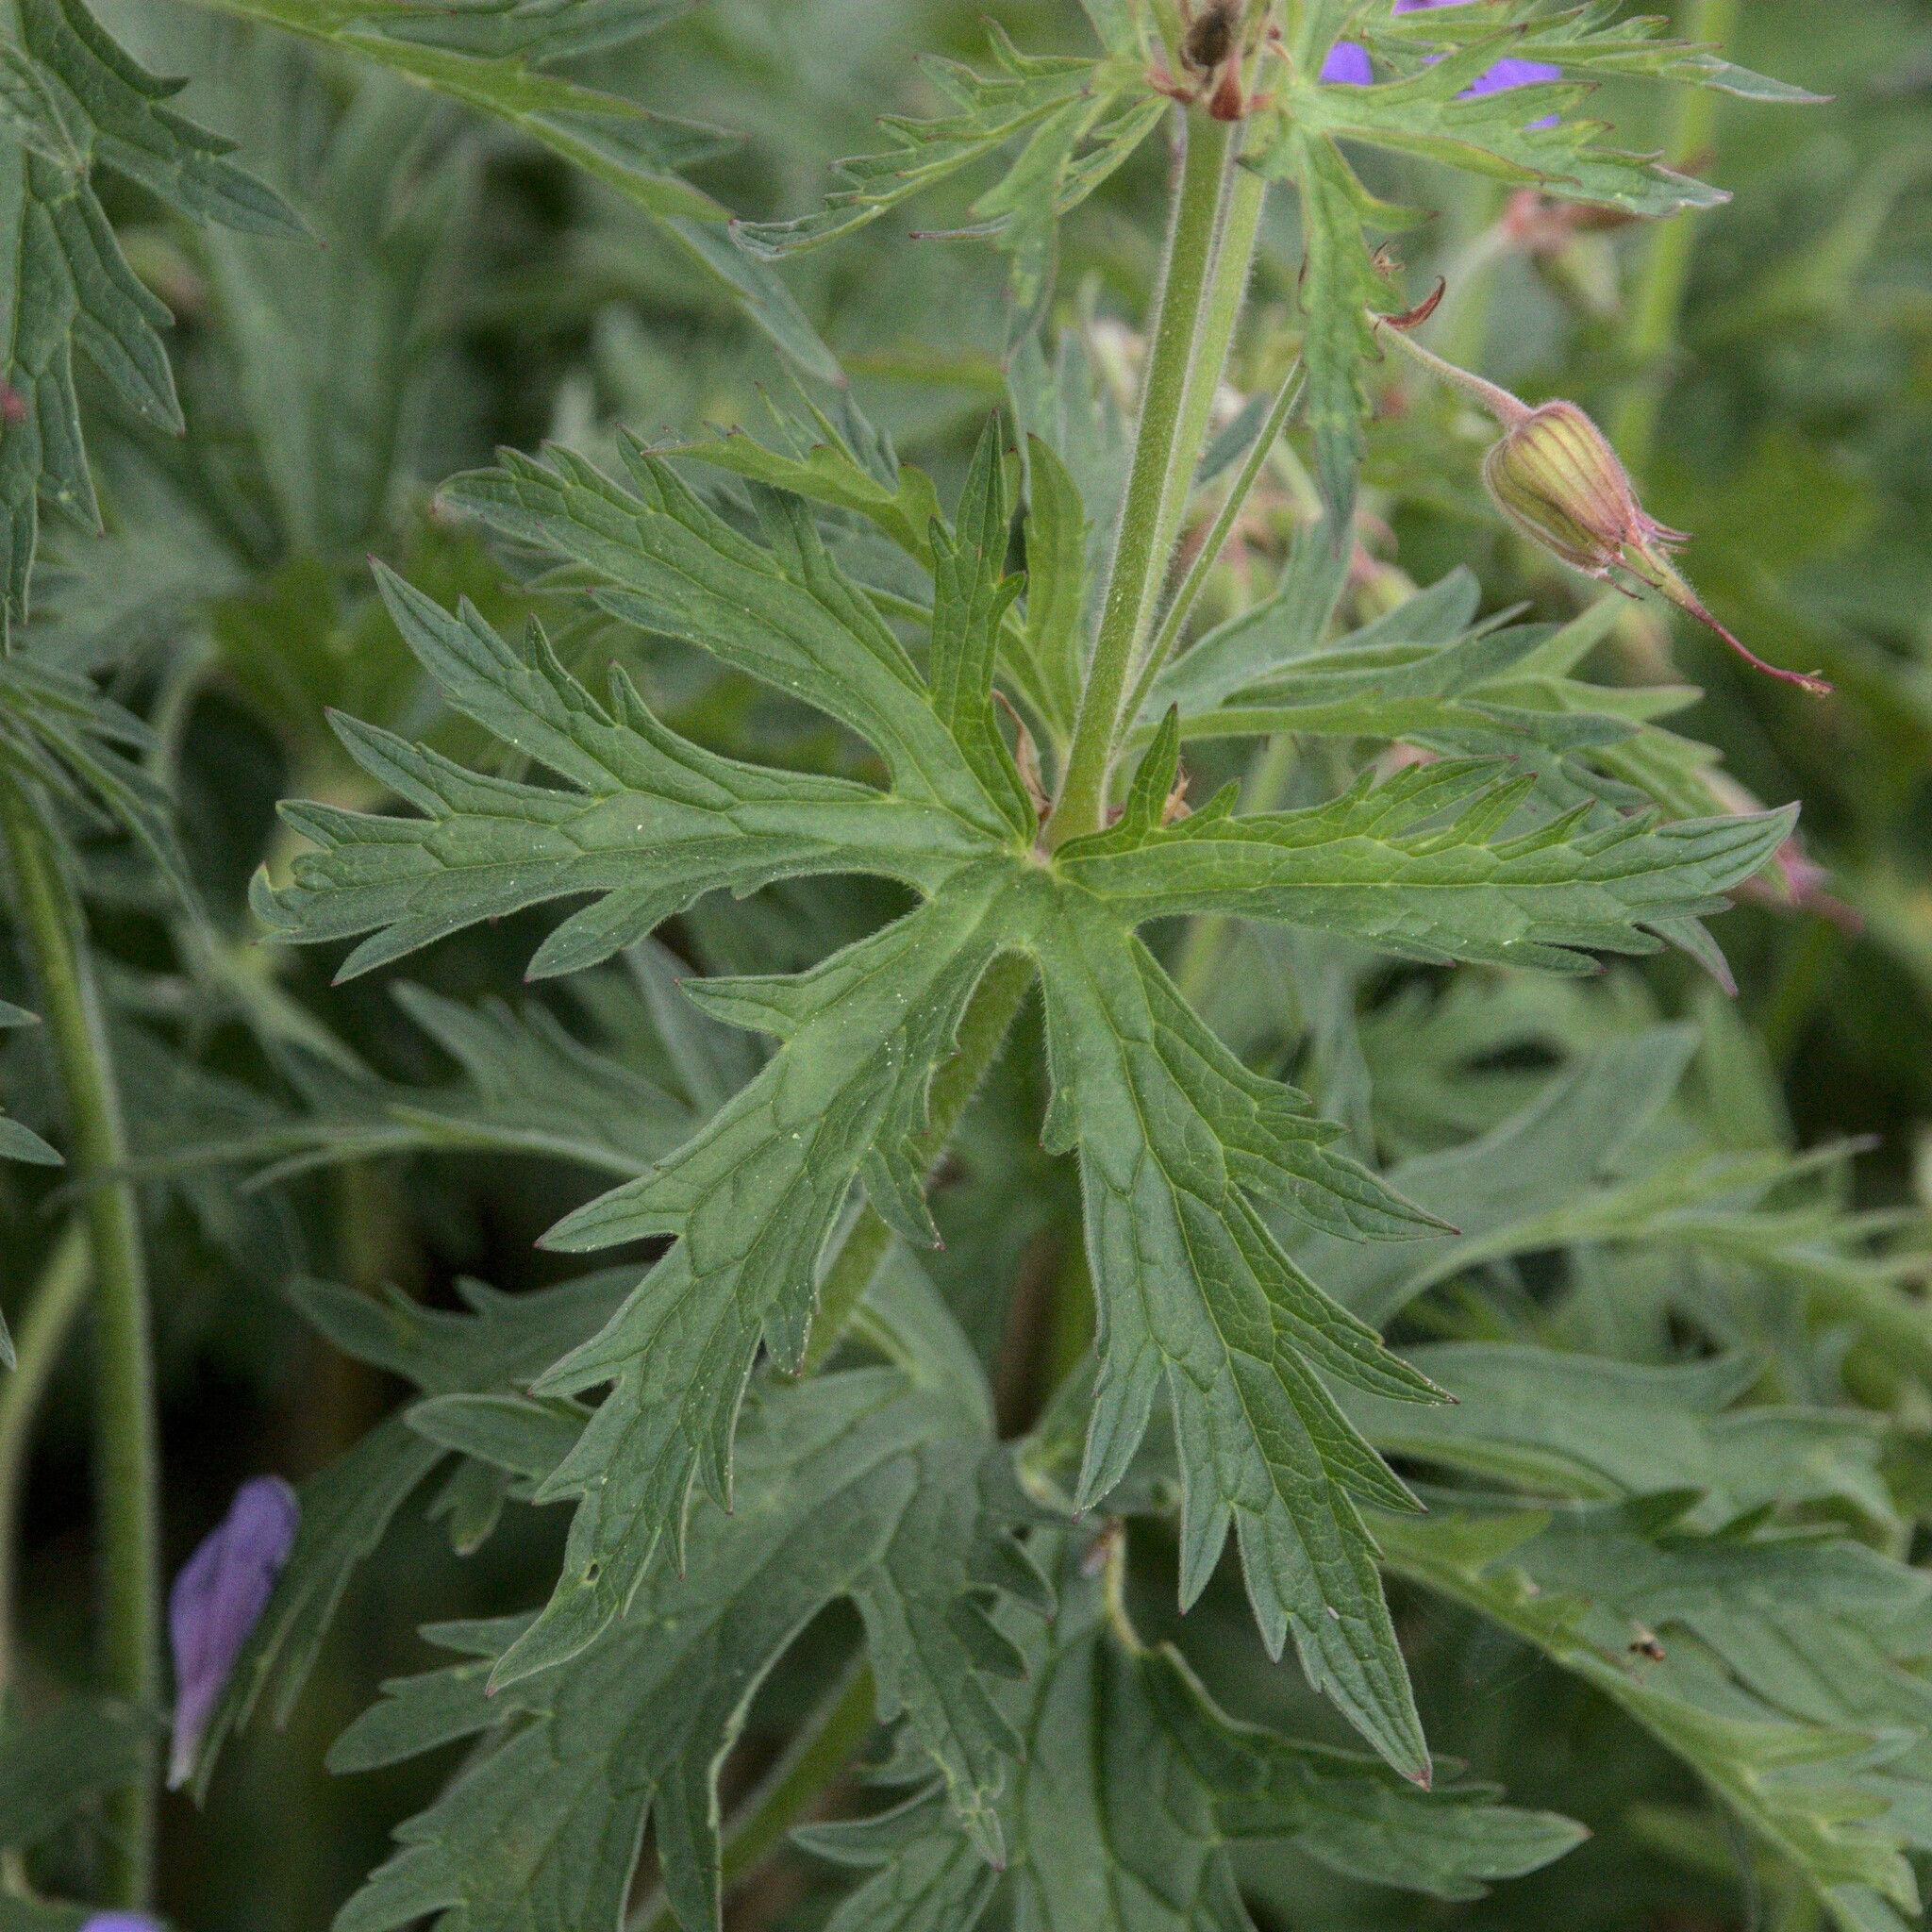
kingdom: Plantae
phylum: Tracheophyta
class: Magnoliopsida
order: Geraniales
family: Geraniaceae
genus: Geranium
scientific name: Geranium pratense
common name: Meadow crane's-bill
